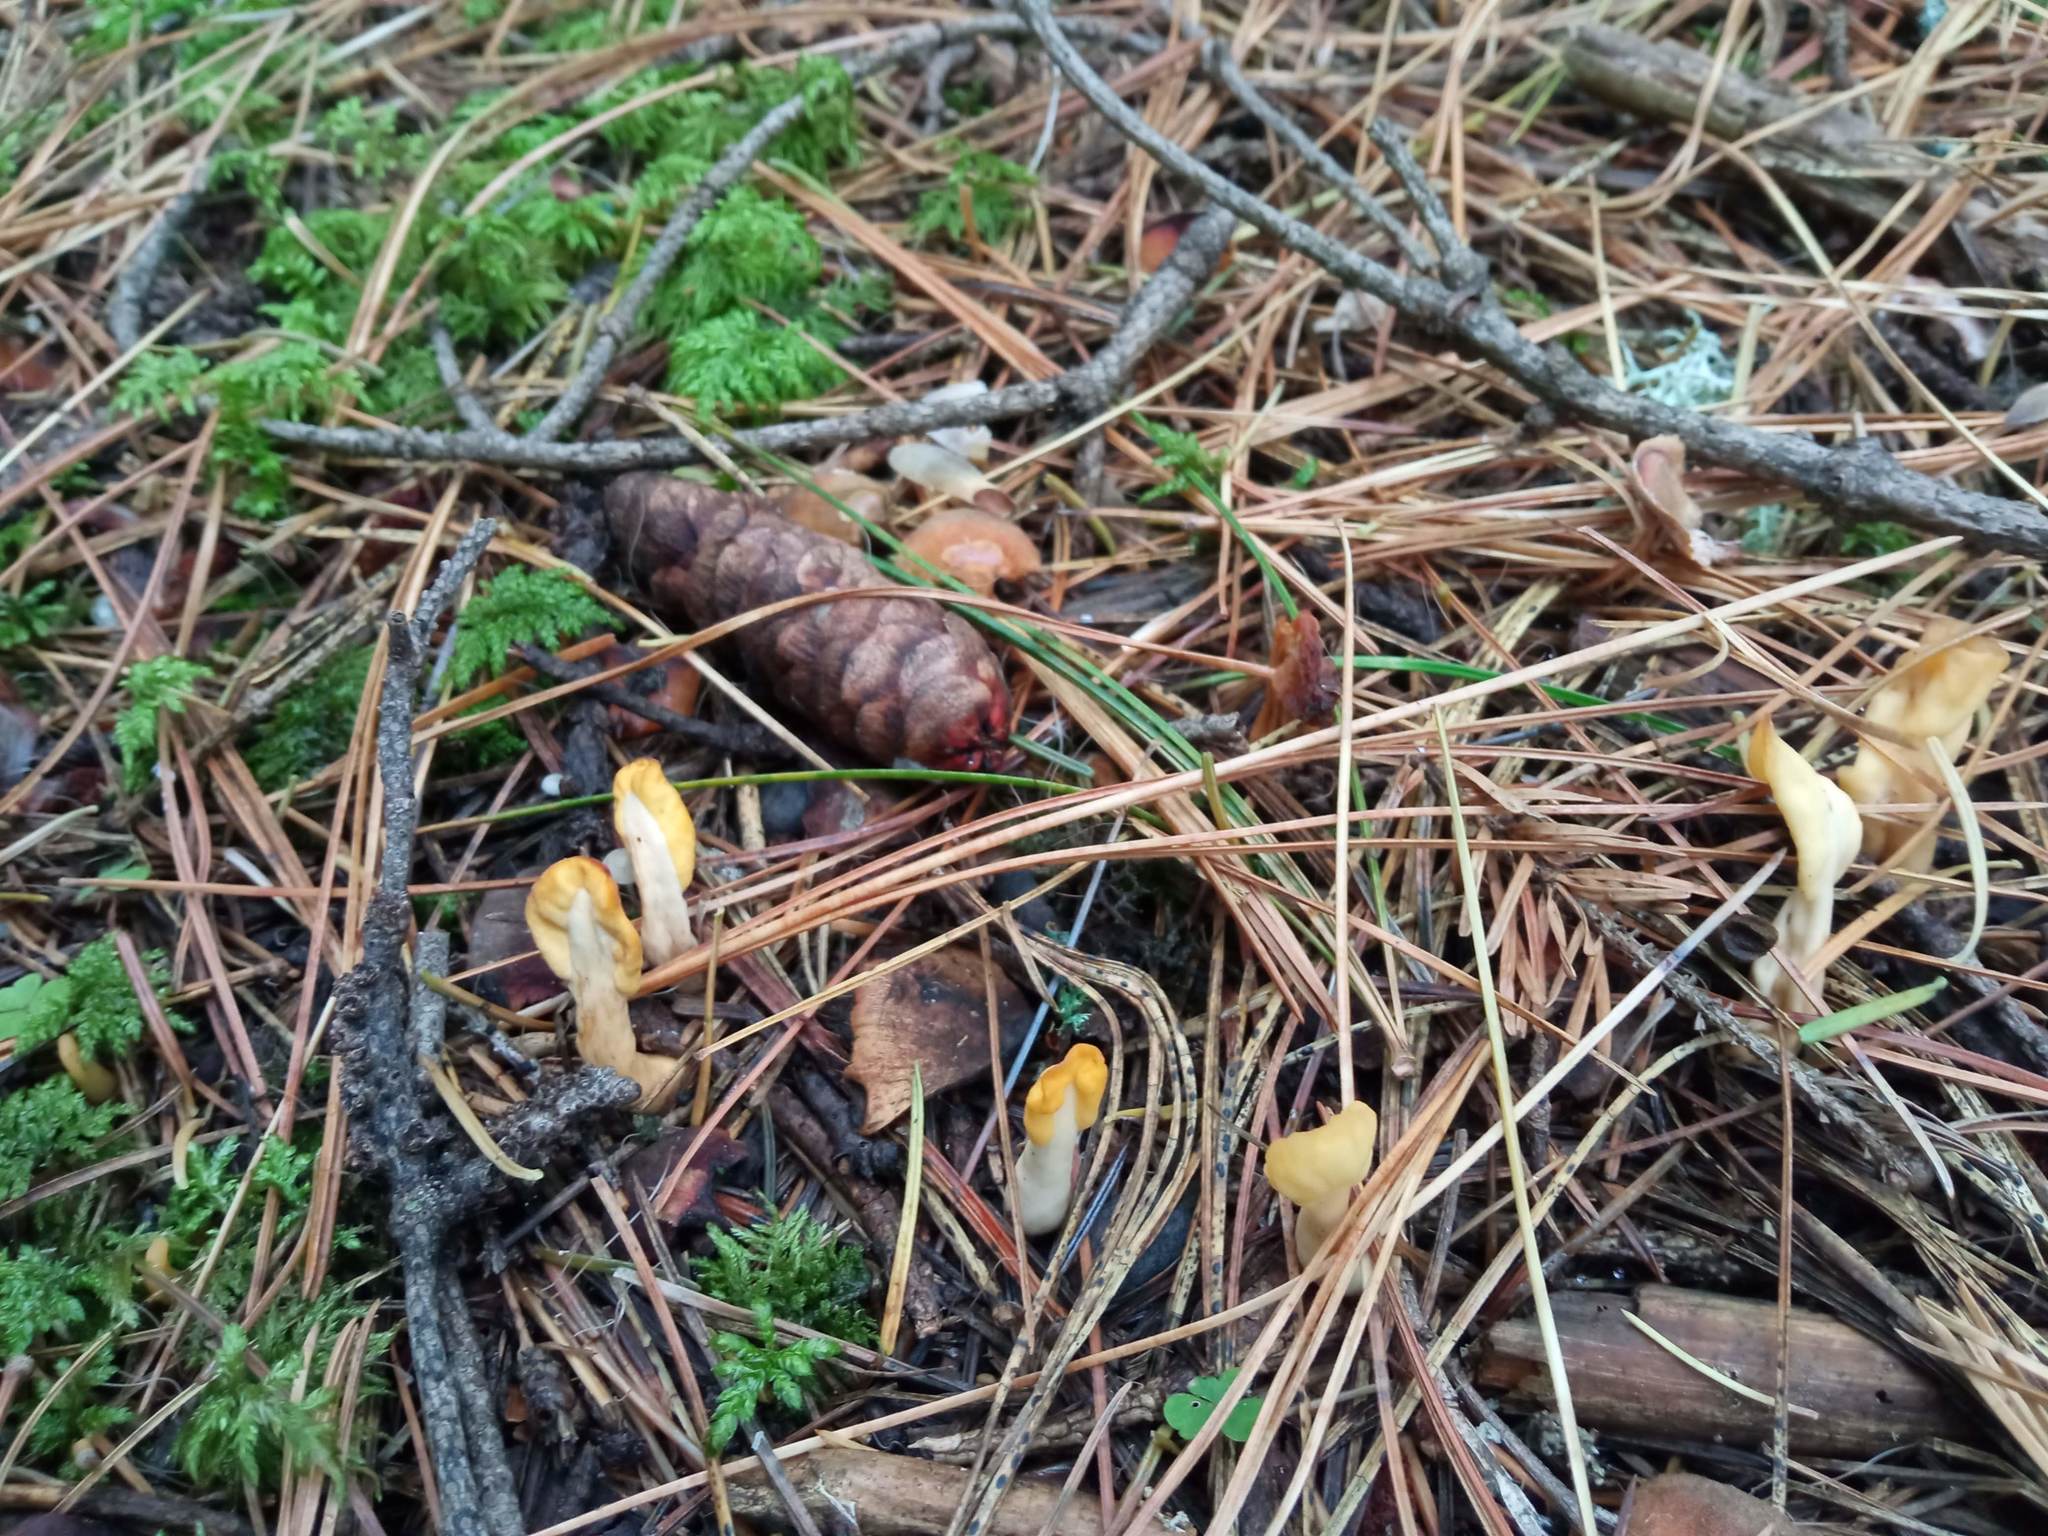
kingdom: Fungi
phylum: Ascomycota
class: Leotiomycetes
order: Rhytismatales
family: Cudoniaceae
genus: Spathularia
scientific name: Spathularia flavida
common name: Yellow fan
